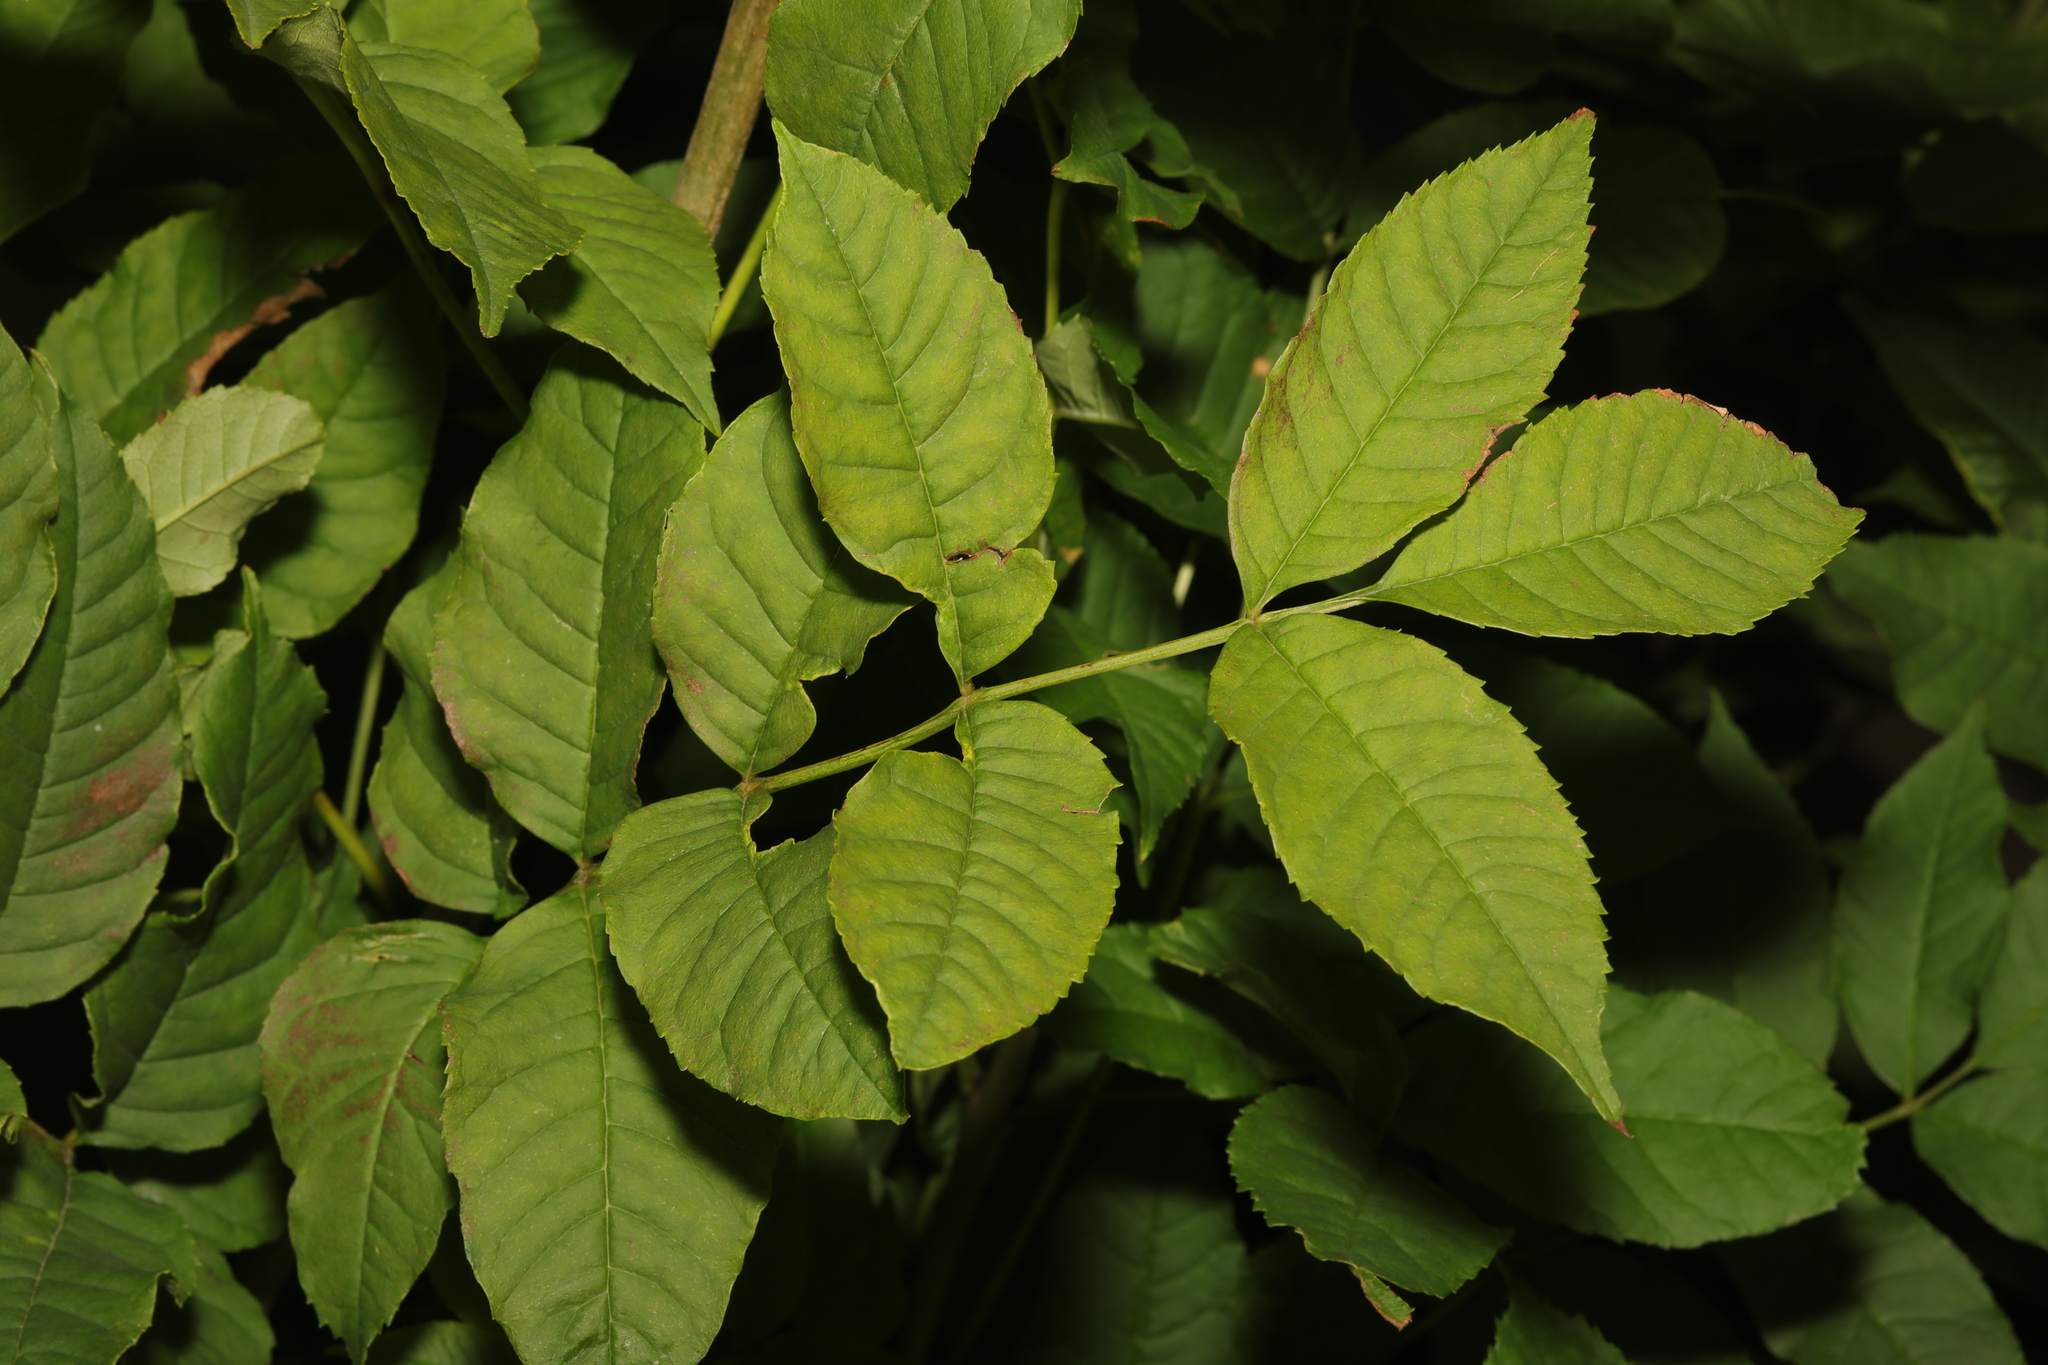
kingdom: Plantae
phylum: Tracheophyta
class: Magnoliopsida
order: Lamiales
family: Oleaceae
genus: Fraxinus
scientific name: Fraxinus excelsior
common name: European ash
